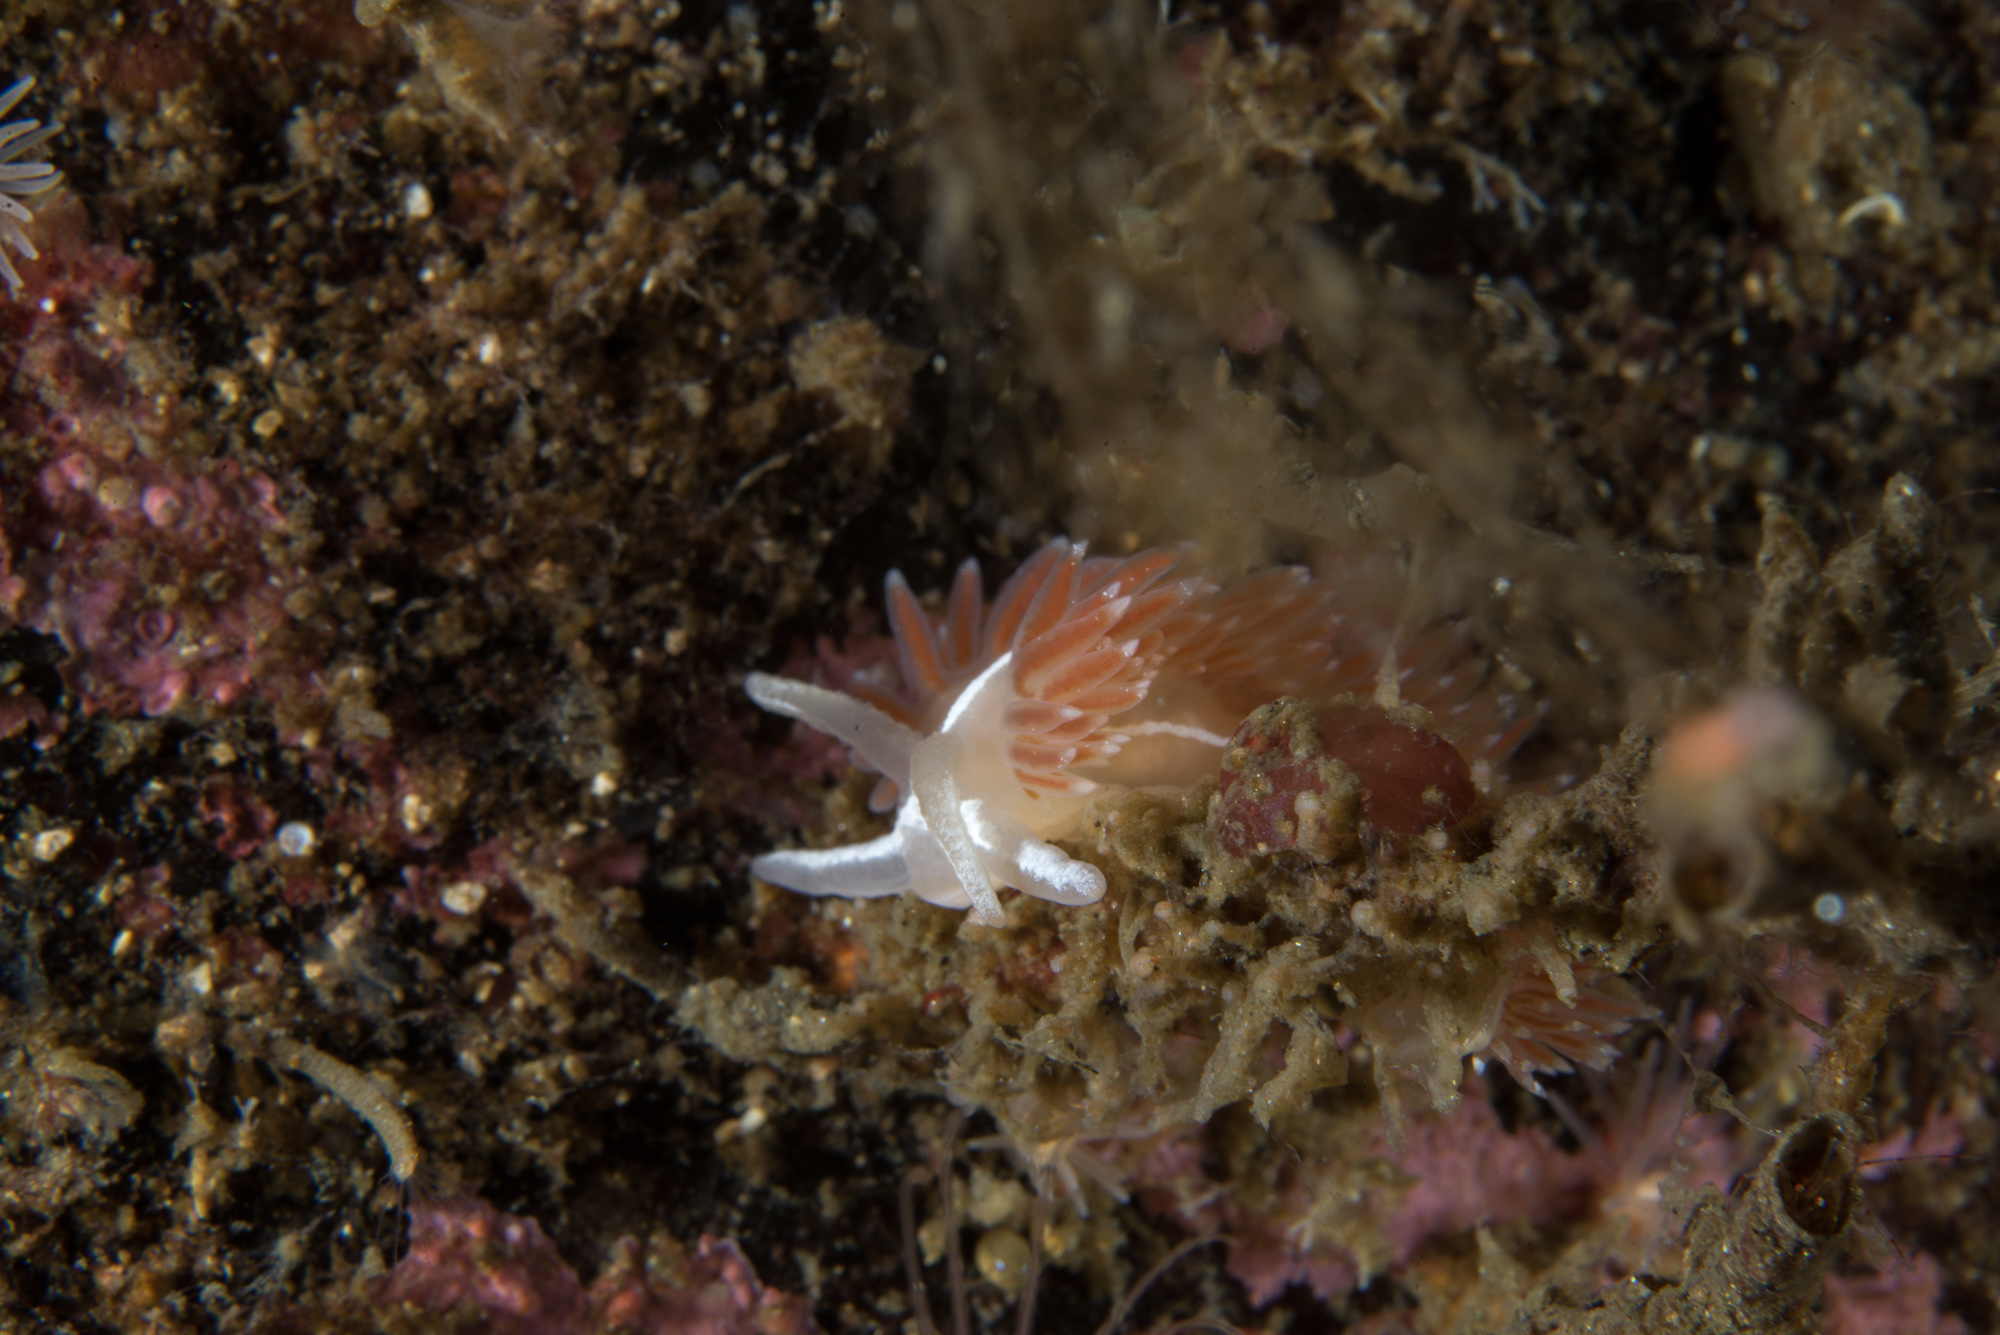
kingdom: Animalia
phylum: Mollusca
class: Gastropoda
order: Nudibranchia
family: Coryphellidae
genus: Coryphella
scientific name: Coryphella monicae
